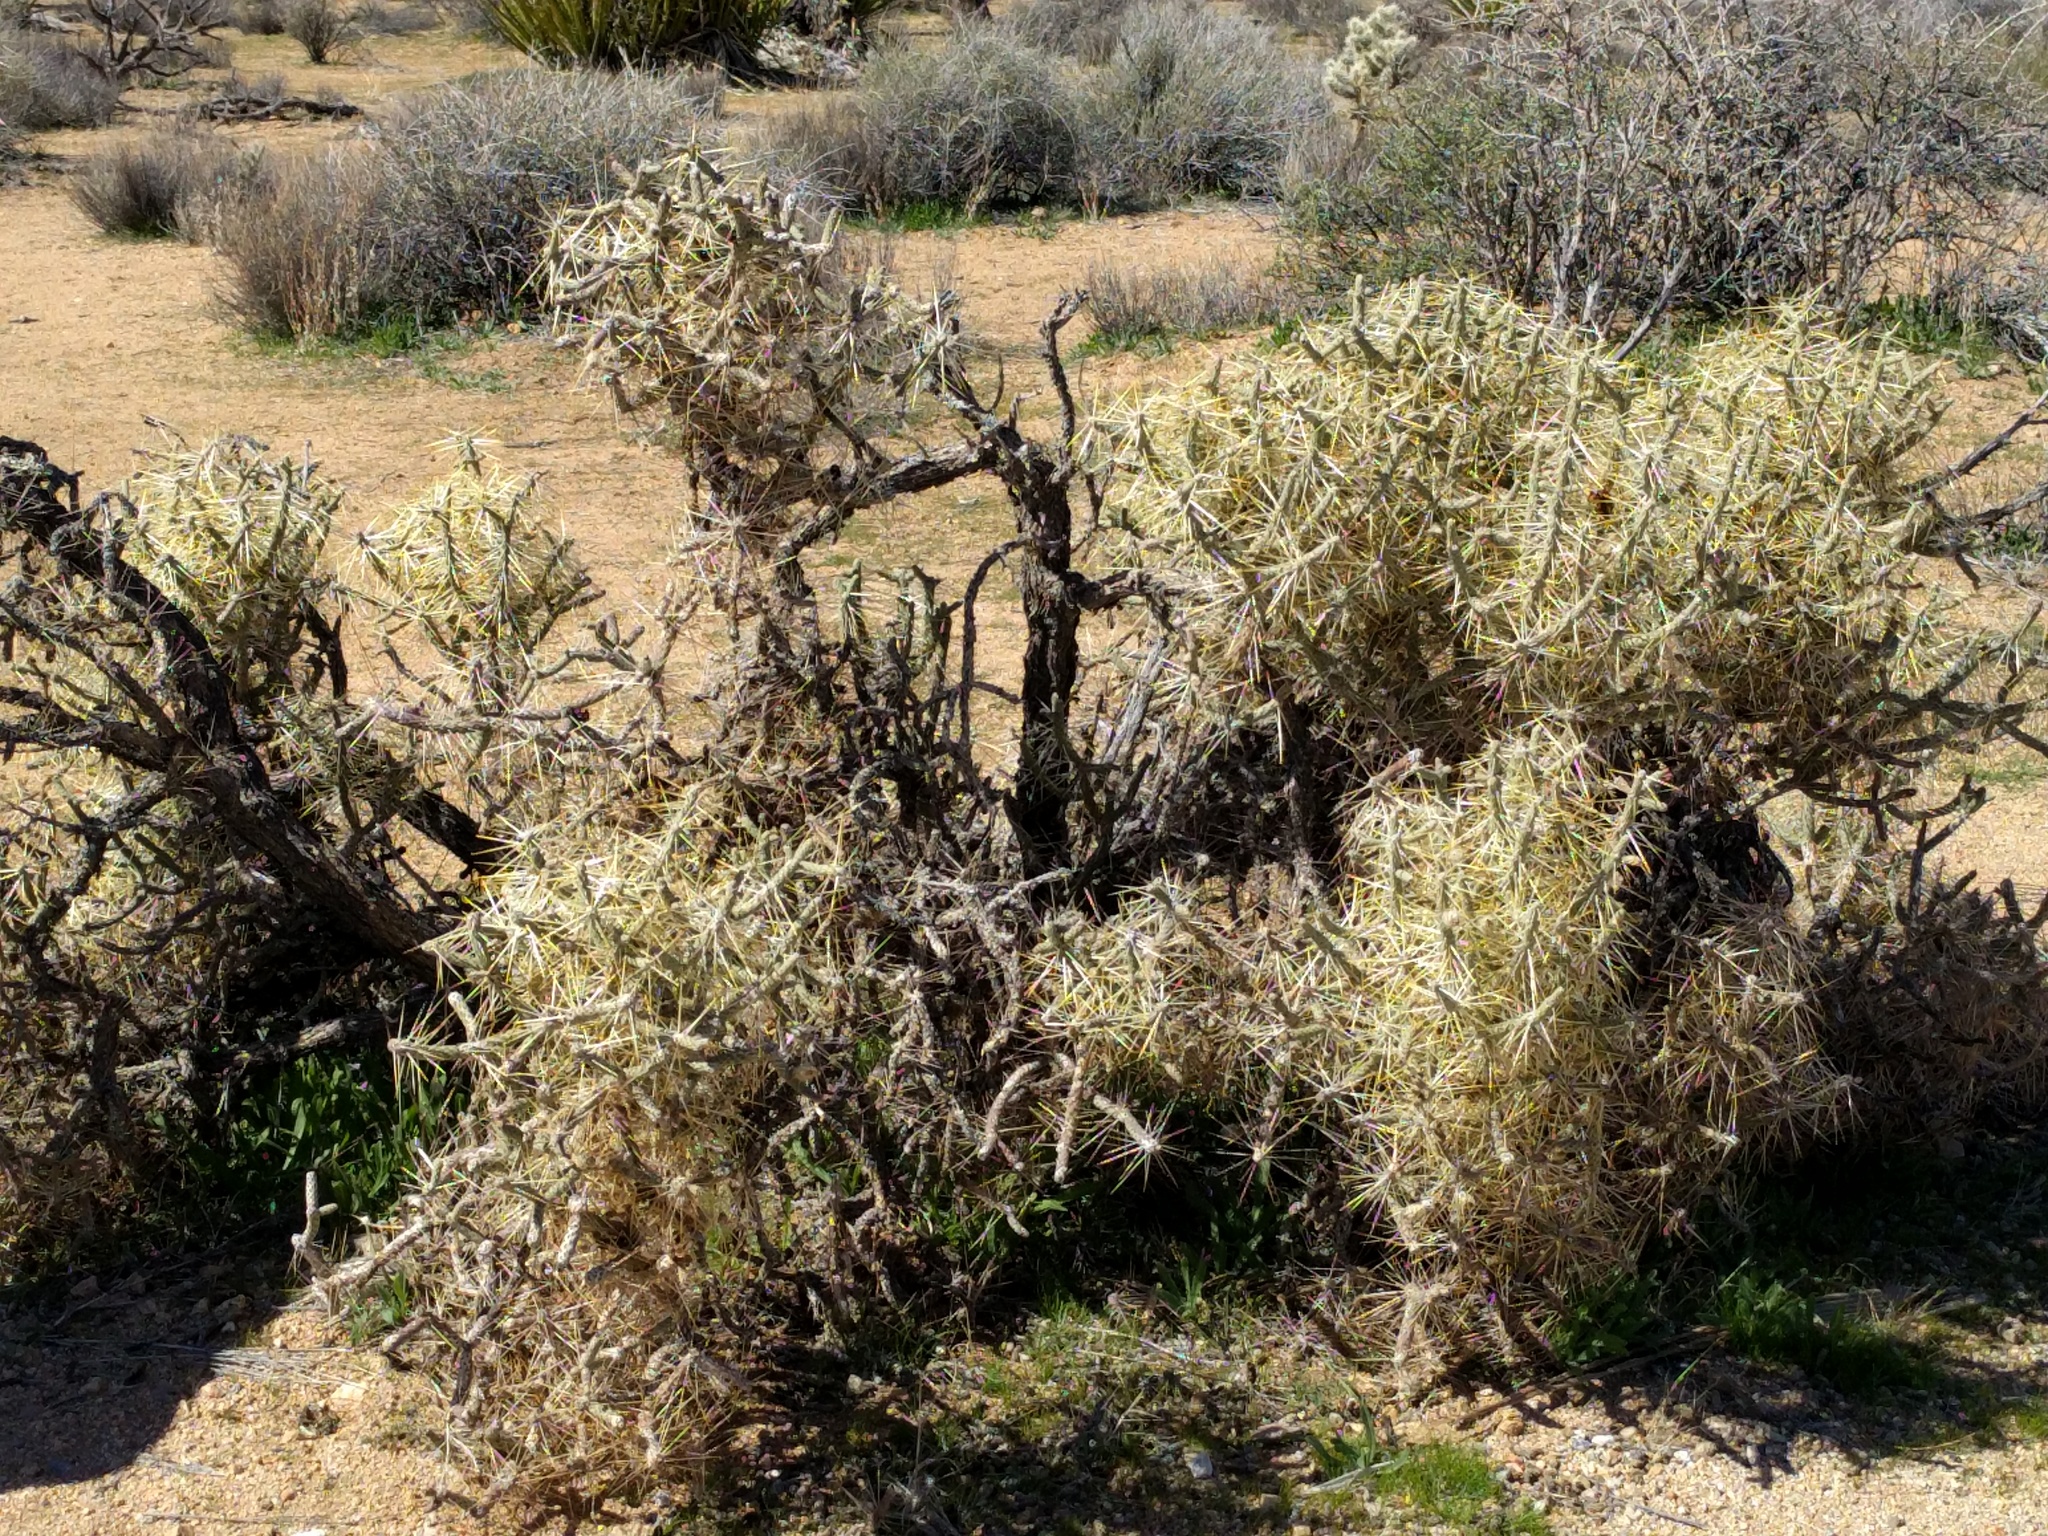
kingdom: Plantae
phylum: Tracheophyta
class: Magnoliopsida
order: Caryophyllales
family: Cactaceae
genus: Cylindropuntia
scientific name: Cylindropuntia ramosissima
